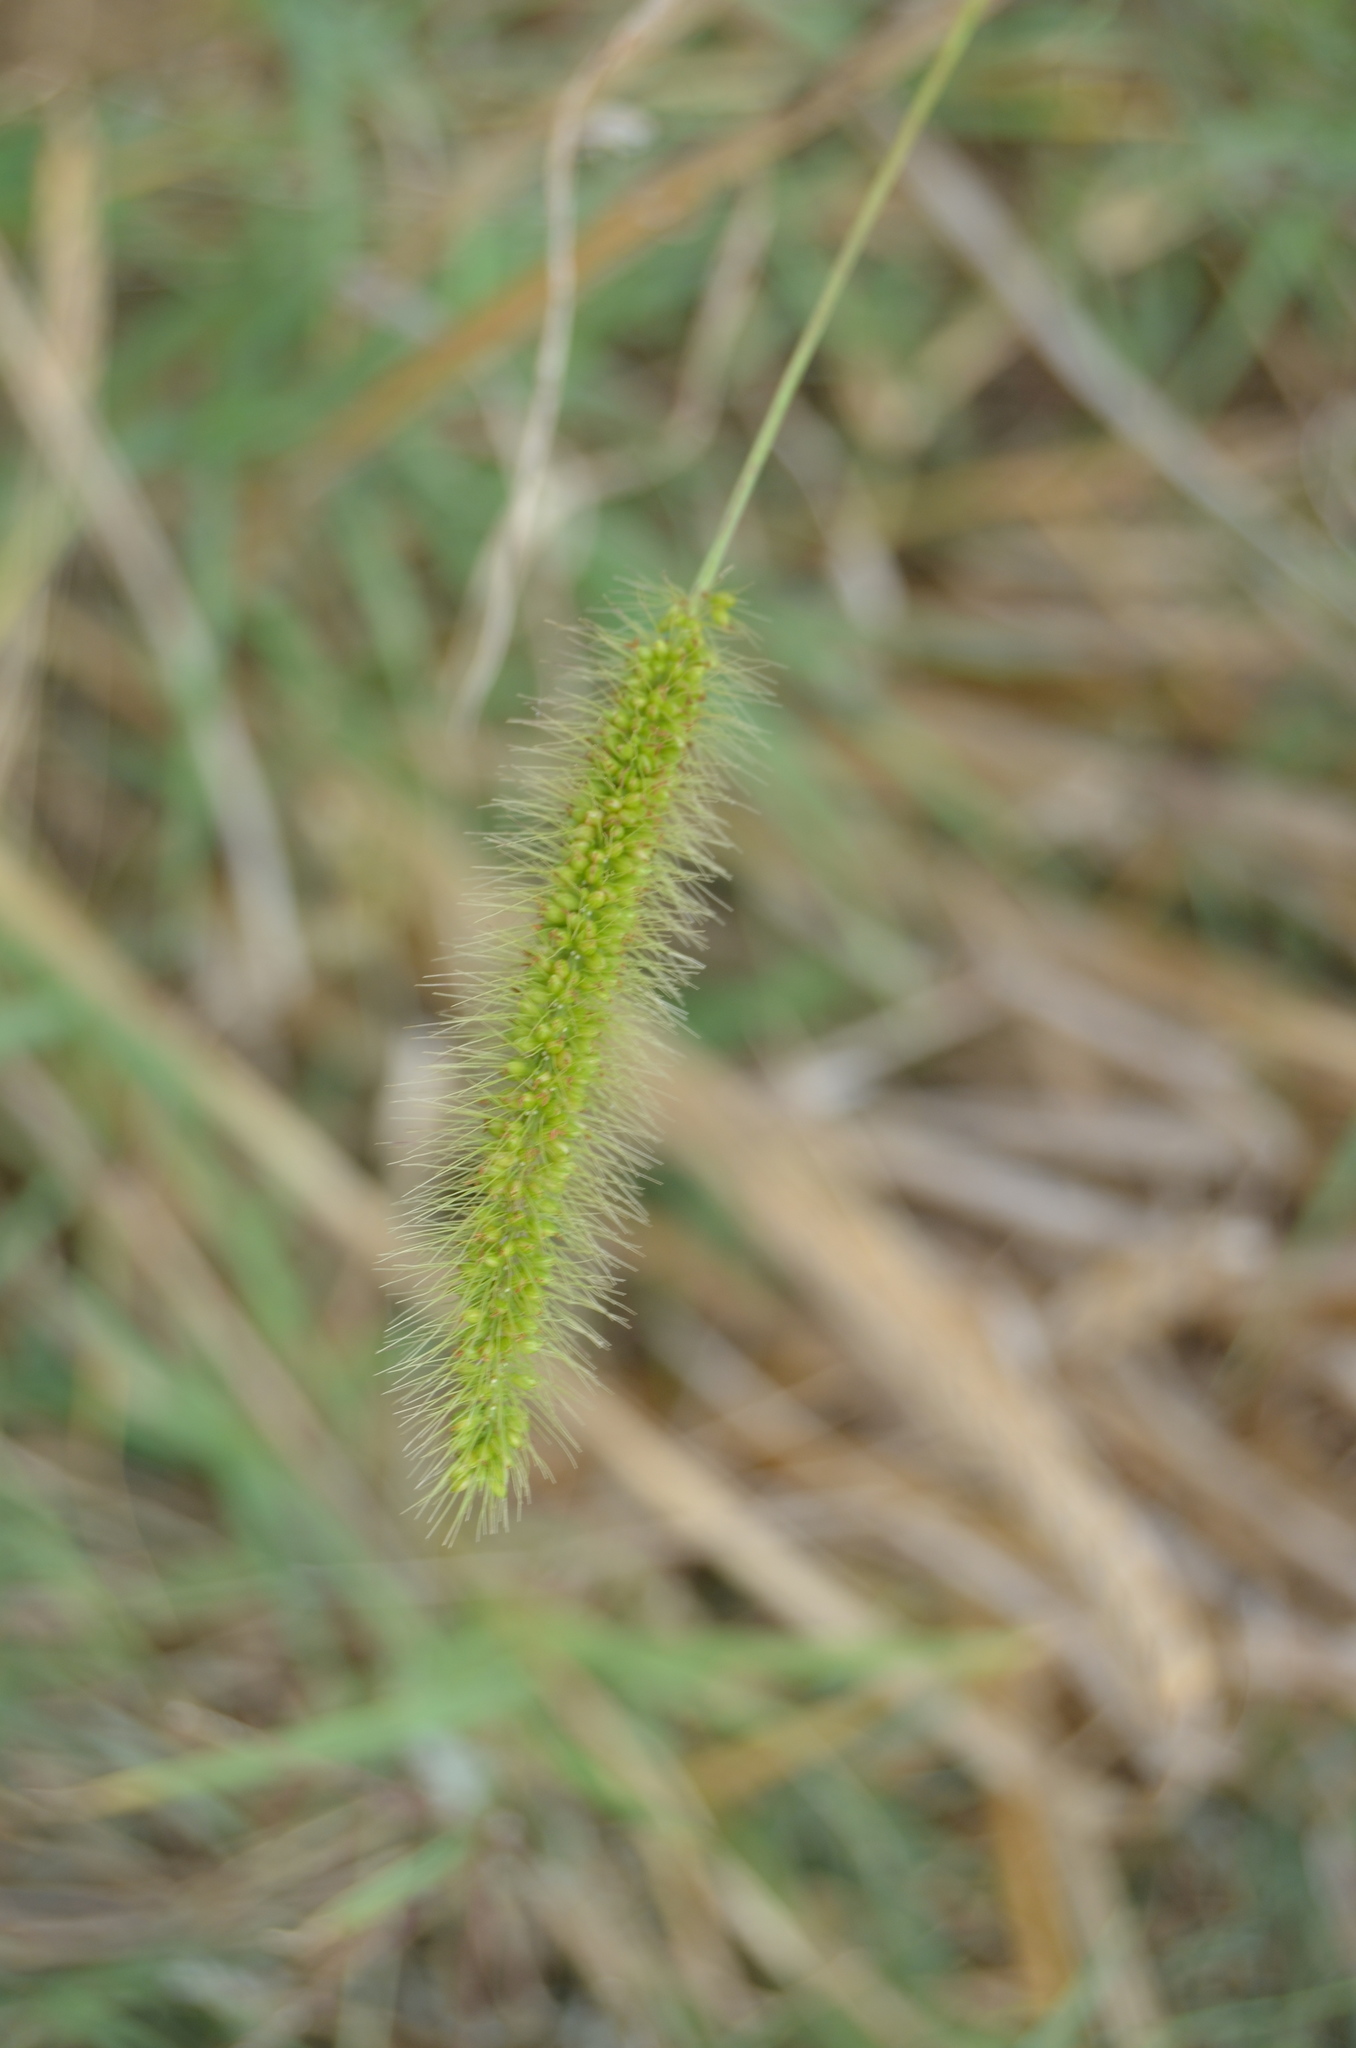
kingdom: Plantae
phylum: Tracheophyta
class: Liliopsida
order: Poales
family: Poaceae
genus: Setaria
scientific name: Setaria viridis
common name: Green bristlegrass
